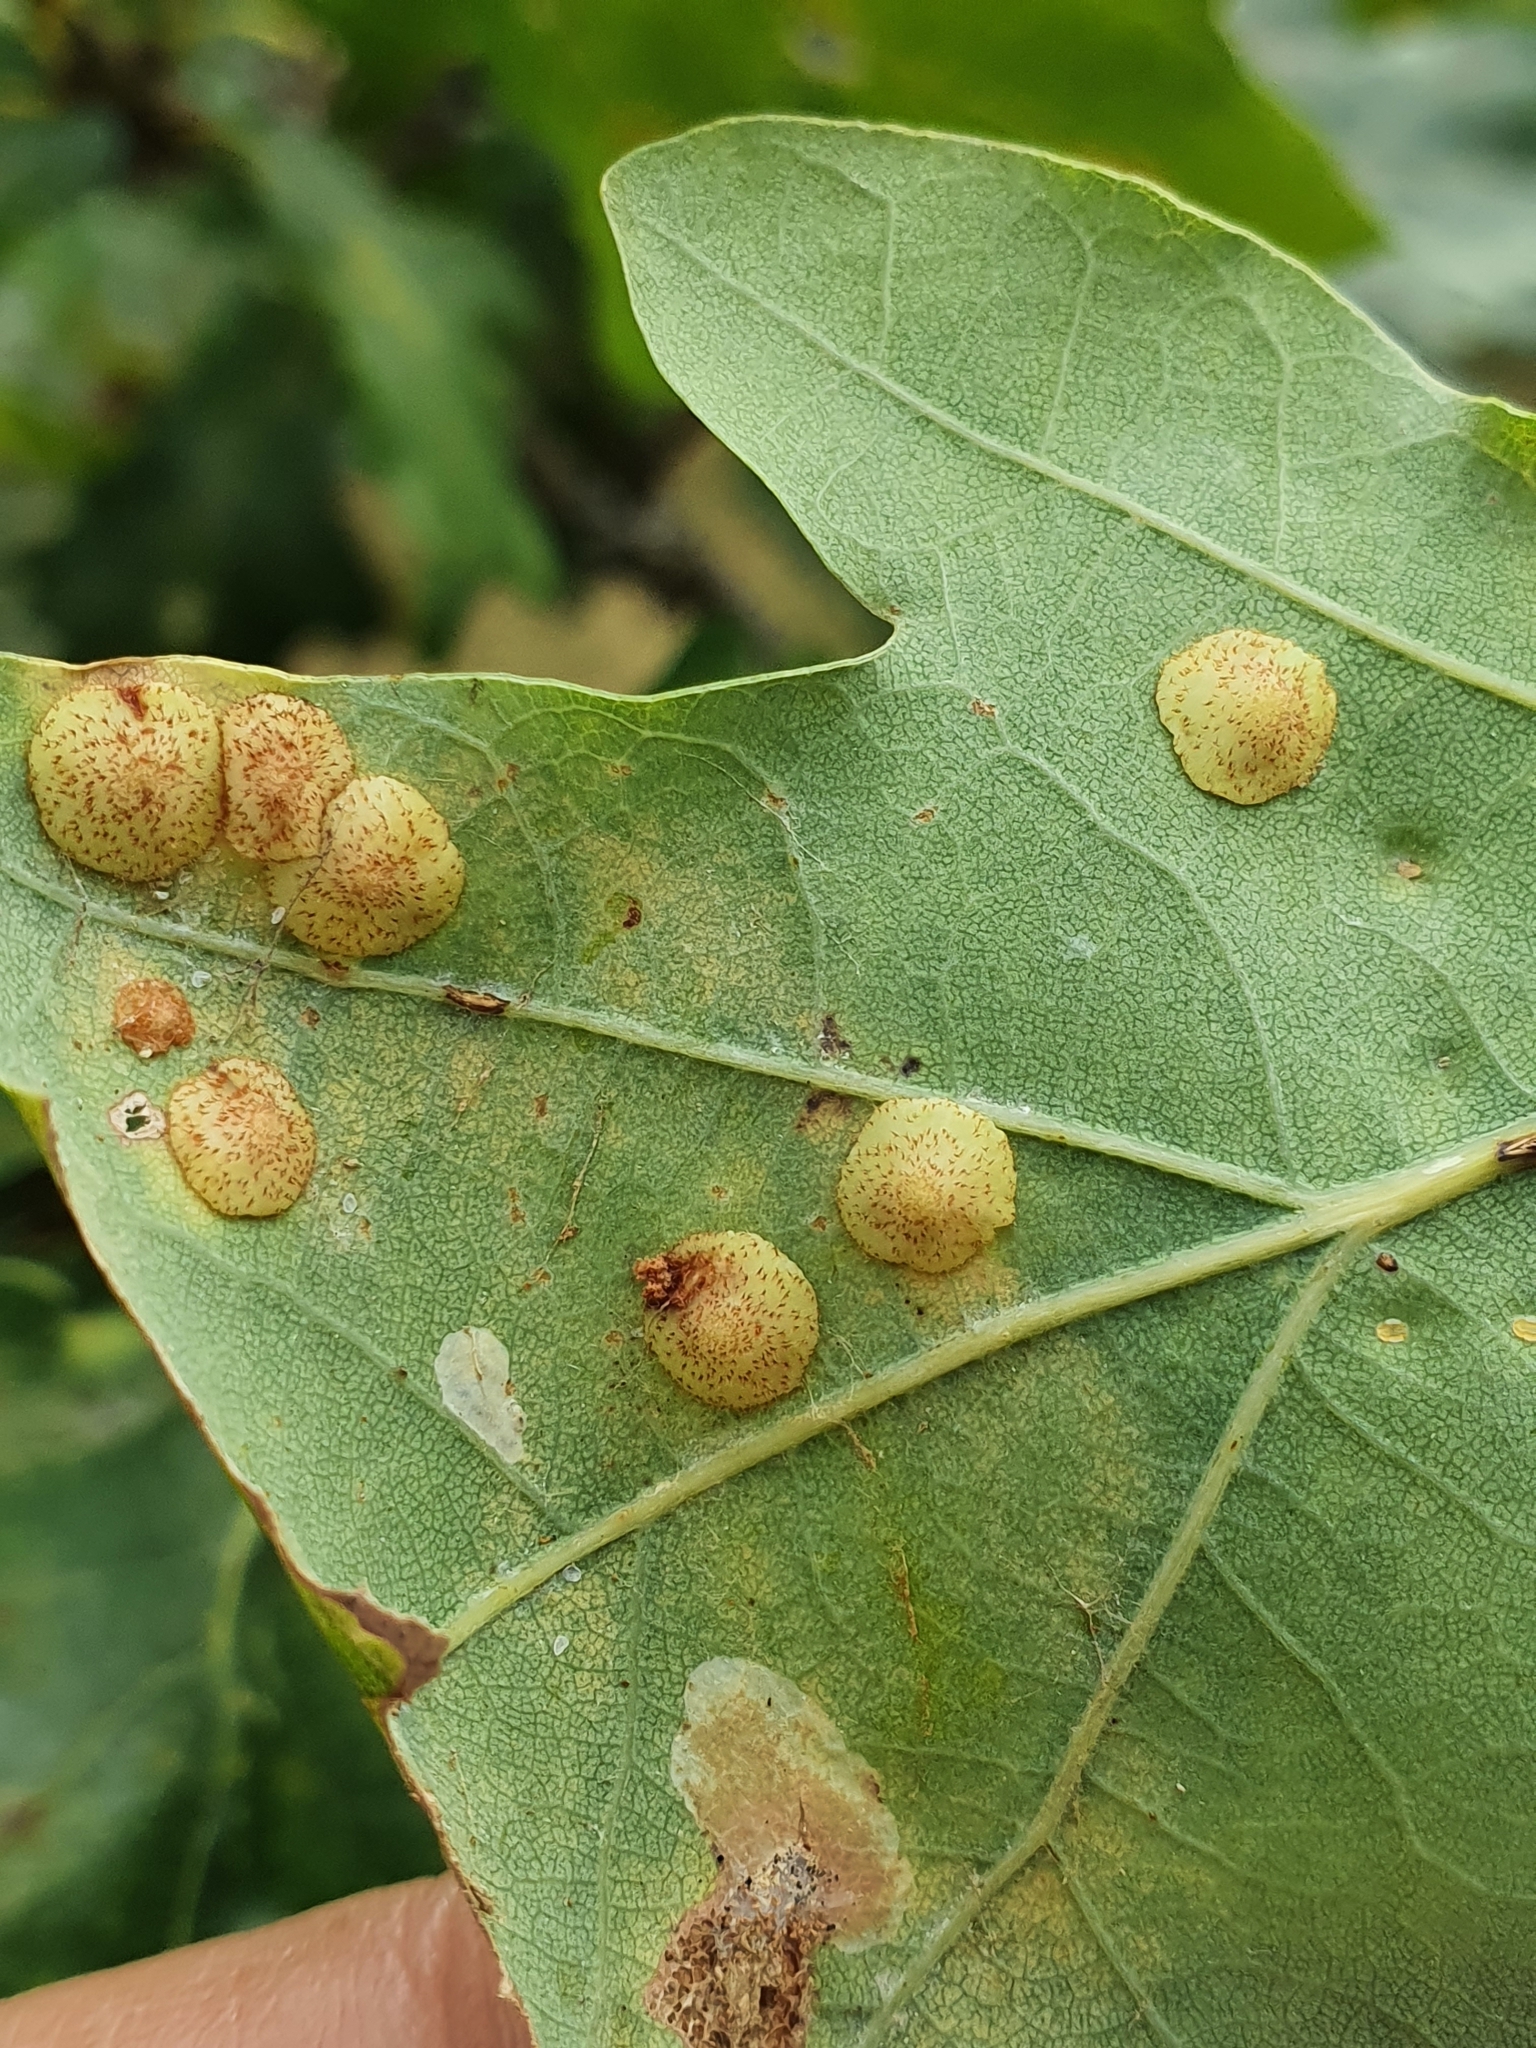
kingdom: Animalia
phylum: Arthropoda
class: Insecta
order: Hymenoptera
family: Cynipidae
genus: Neuroterus
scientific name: Neuroterus quercusbaccarum
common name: Common spangle gall
